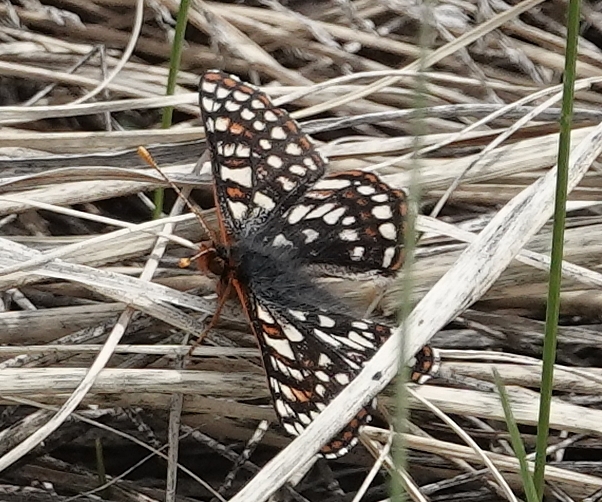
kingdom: Animalia
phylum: Arthropoda
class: Insecta
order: Lepidoptera
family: Nymphalidae
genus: Occidryas
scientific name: Occidryas anicia
